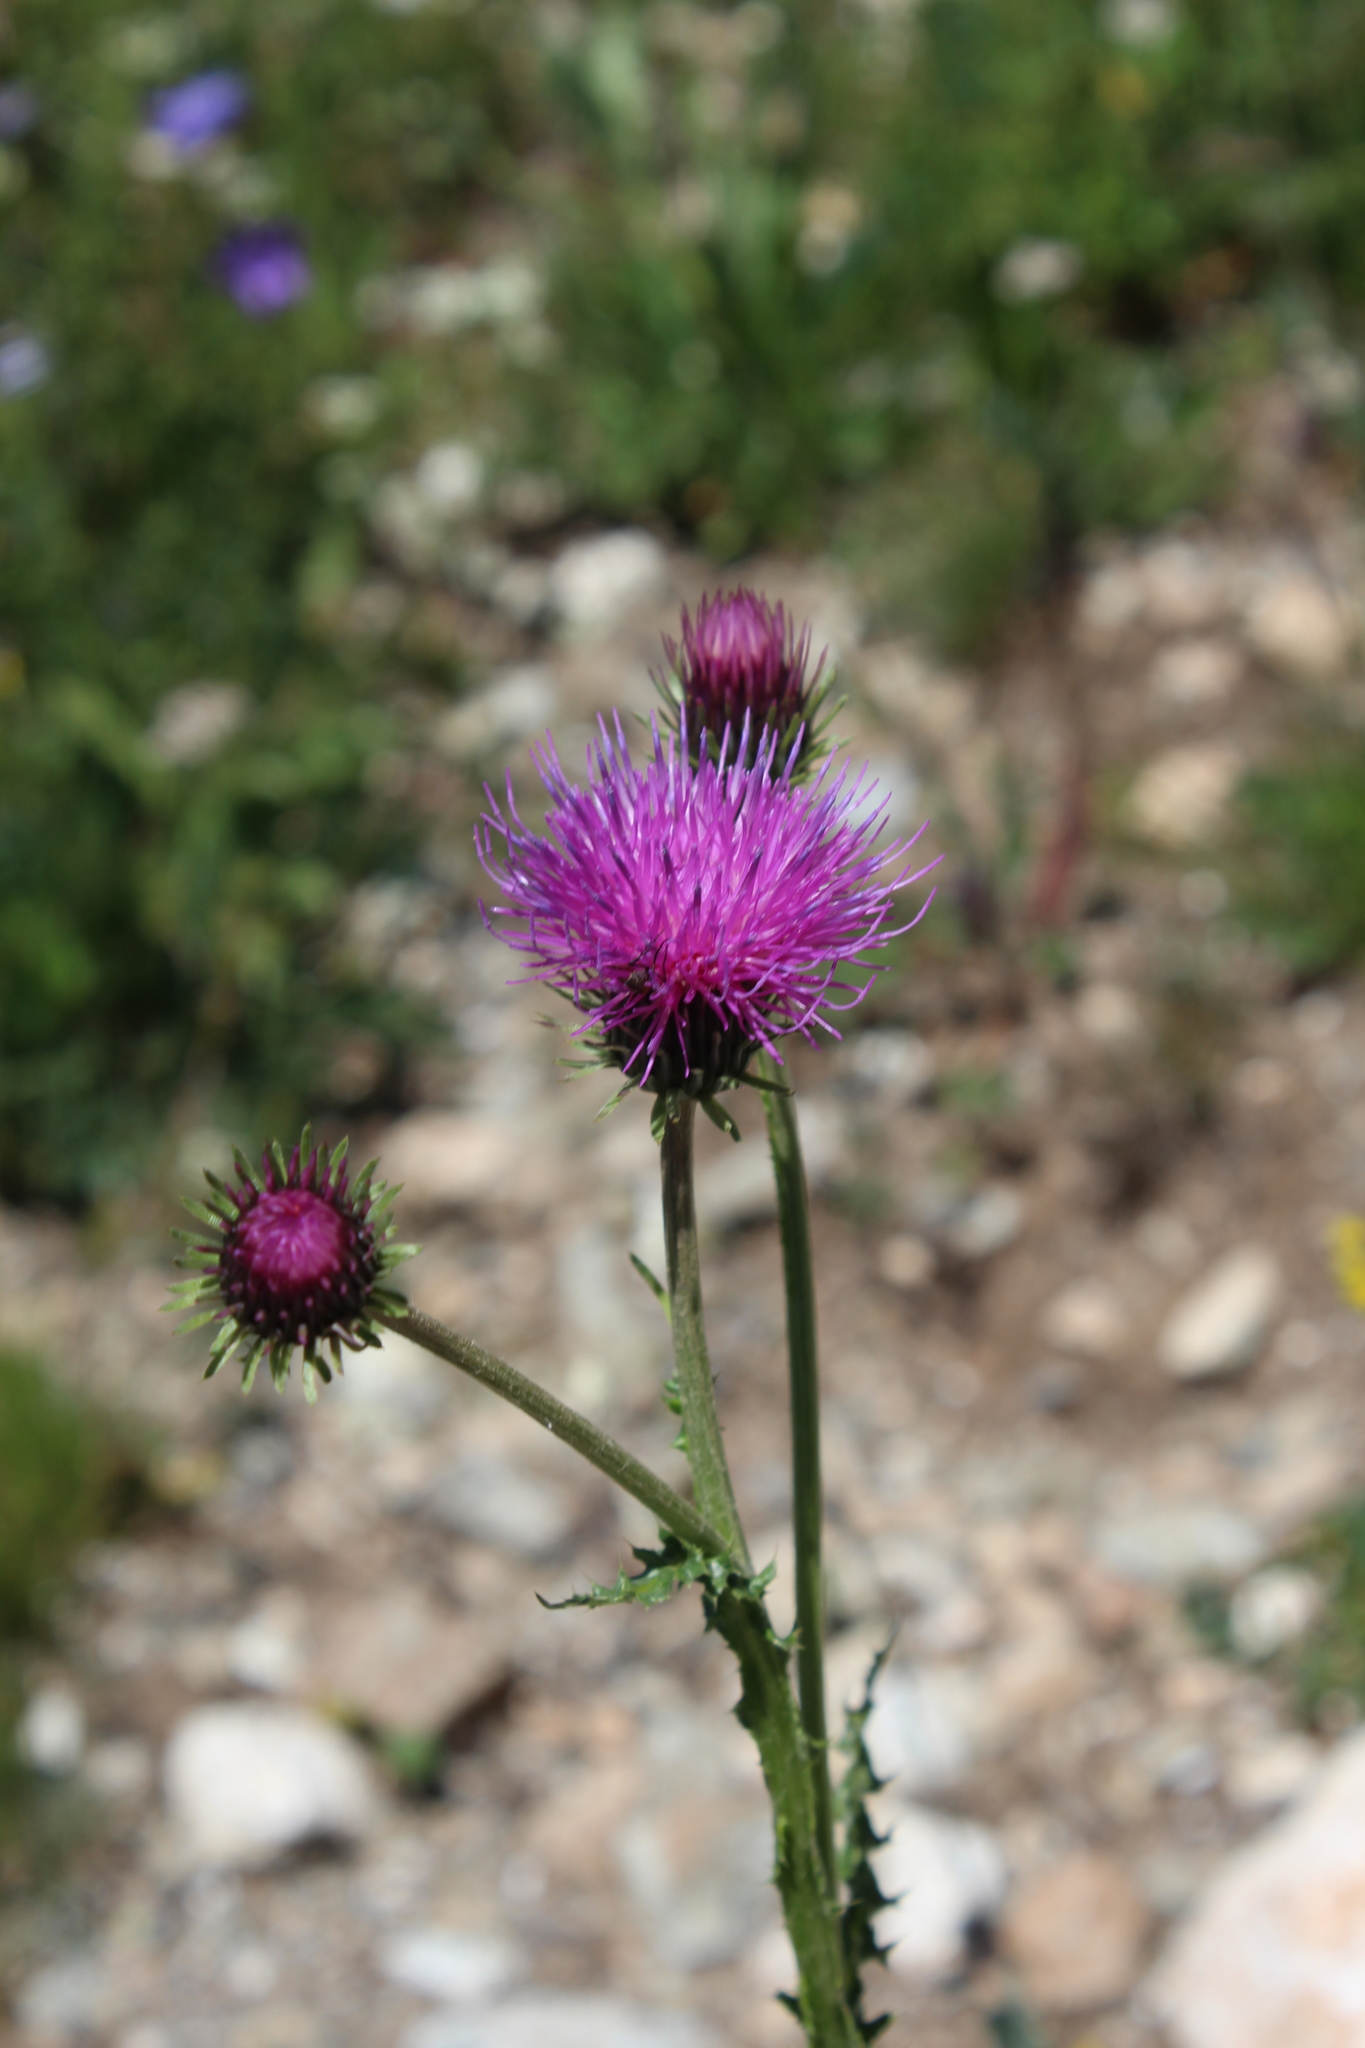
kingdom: Plantae
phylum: Tracheophyta
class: Magnoliopsida
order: Asterales
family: Asteraceae
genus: Carduus
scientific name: Carduus adpressus
